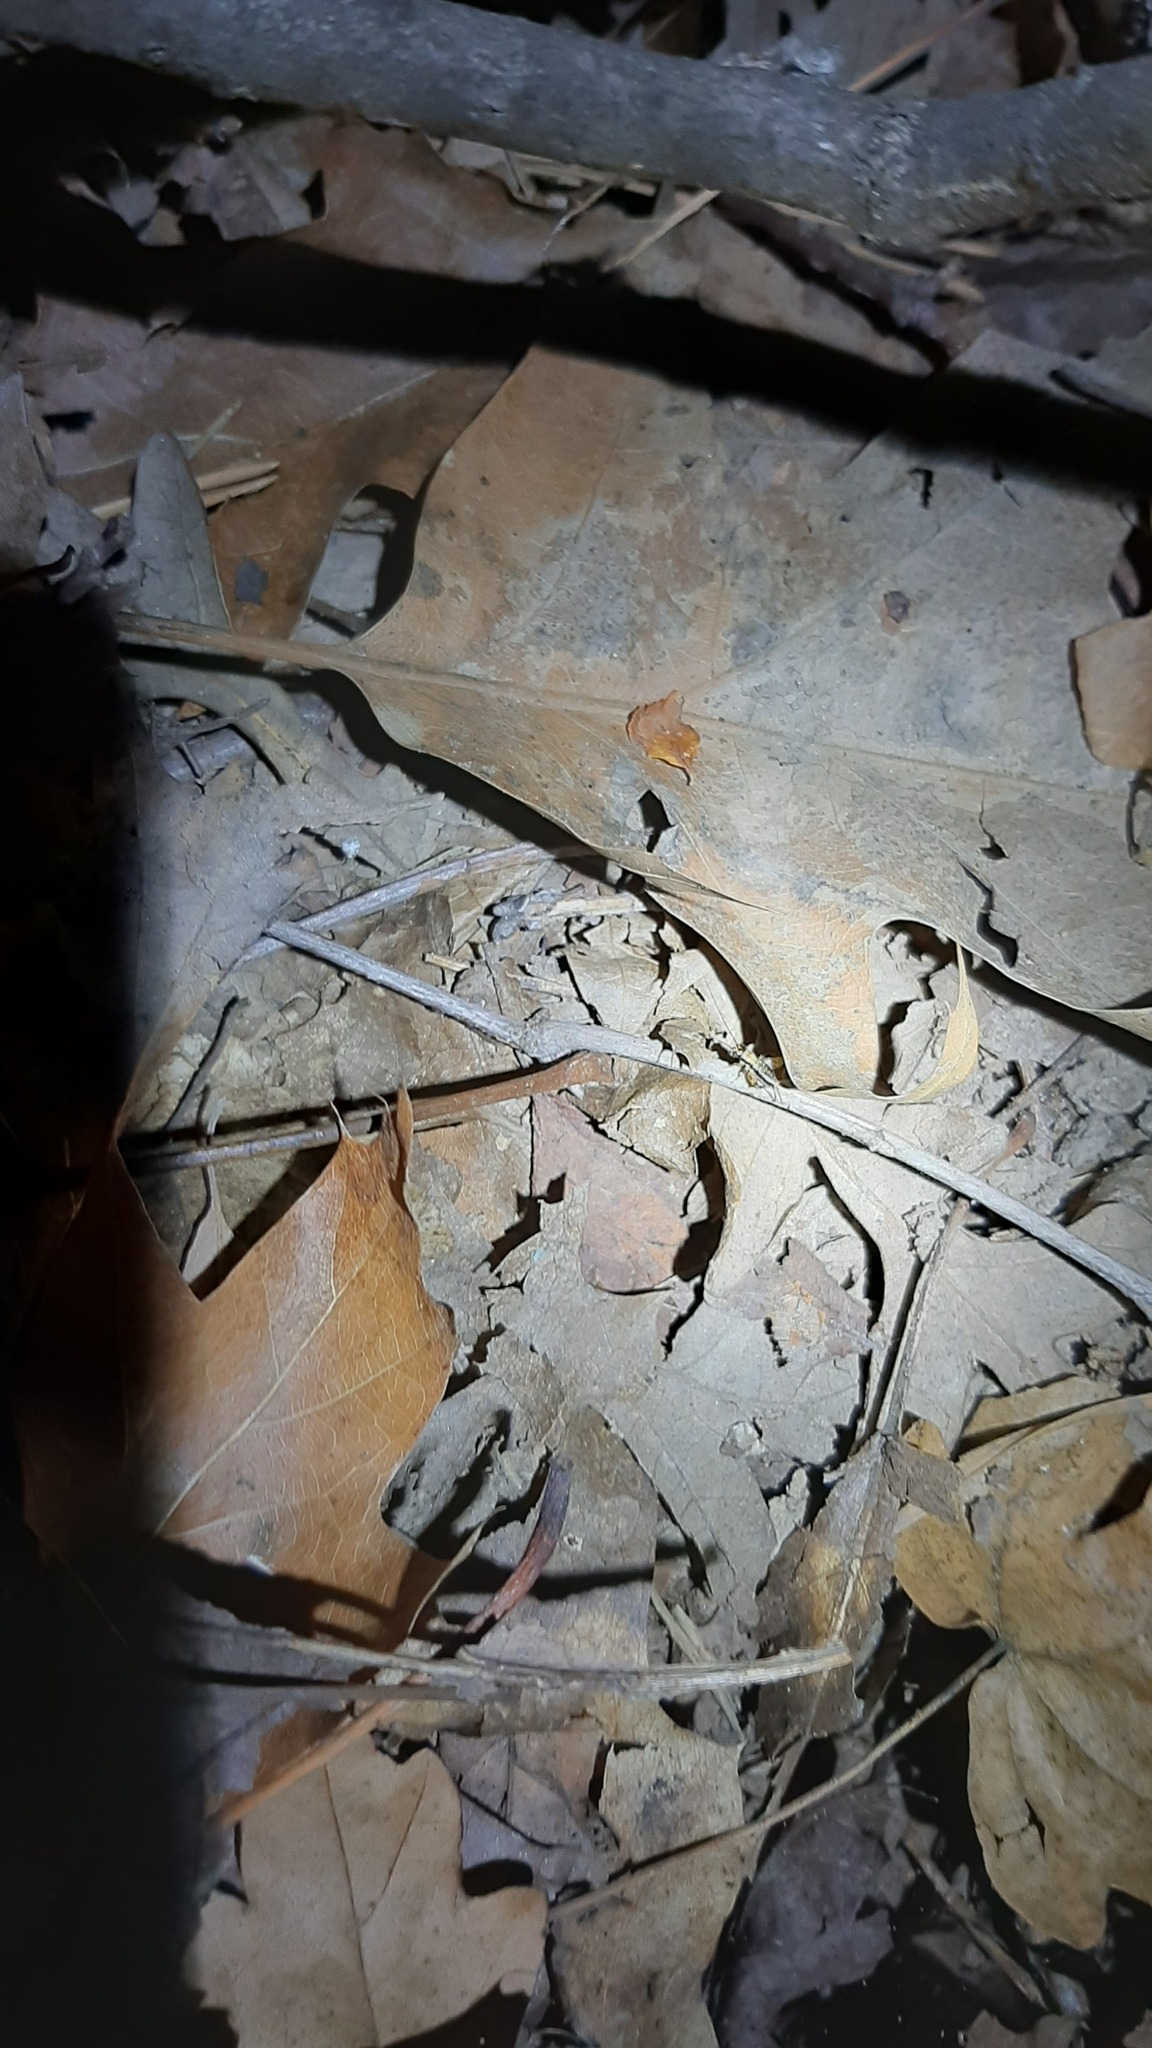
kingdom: Animalia
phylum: Arthropoda
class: Insecta
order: Orthoptera
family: Trigonidiidae
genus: Nemobius
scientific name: Nemobius sylvestris
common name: Wood-cricket
